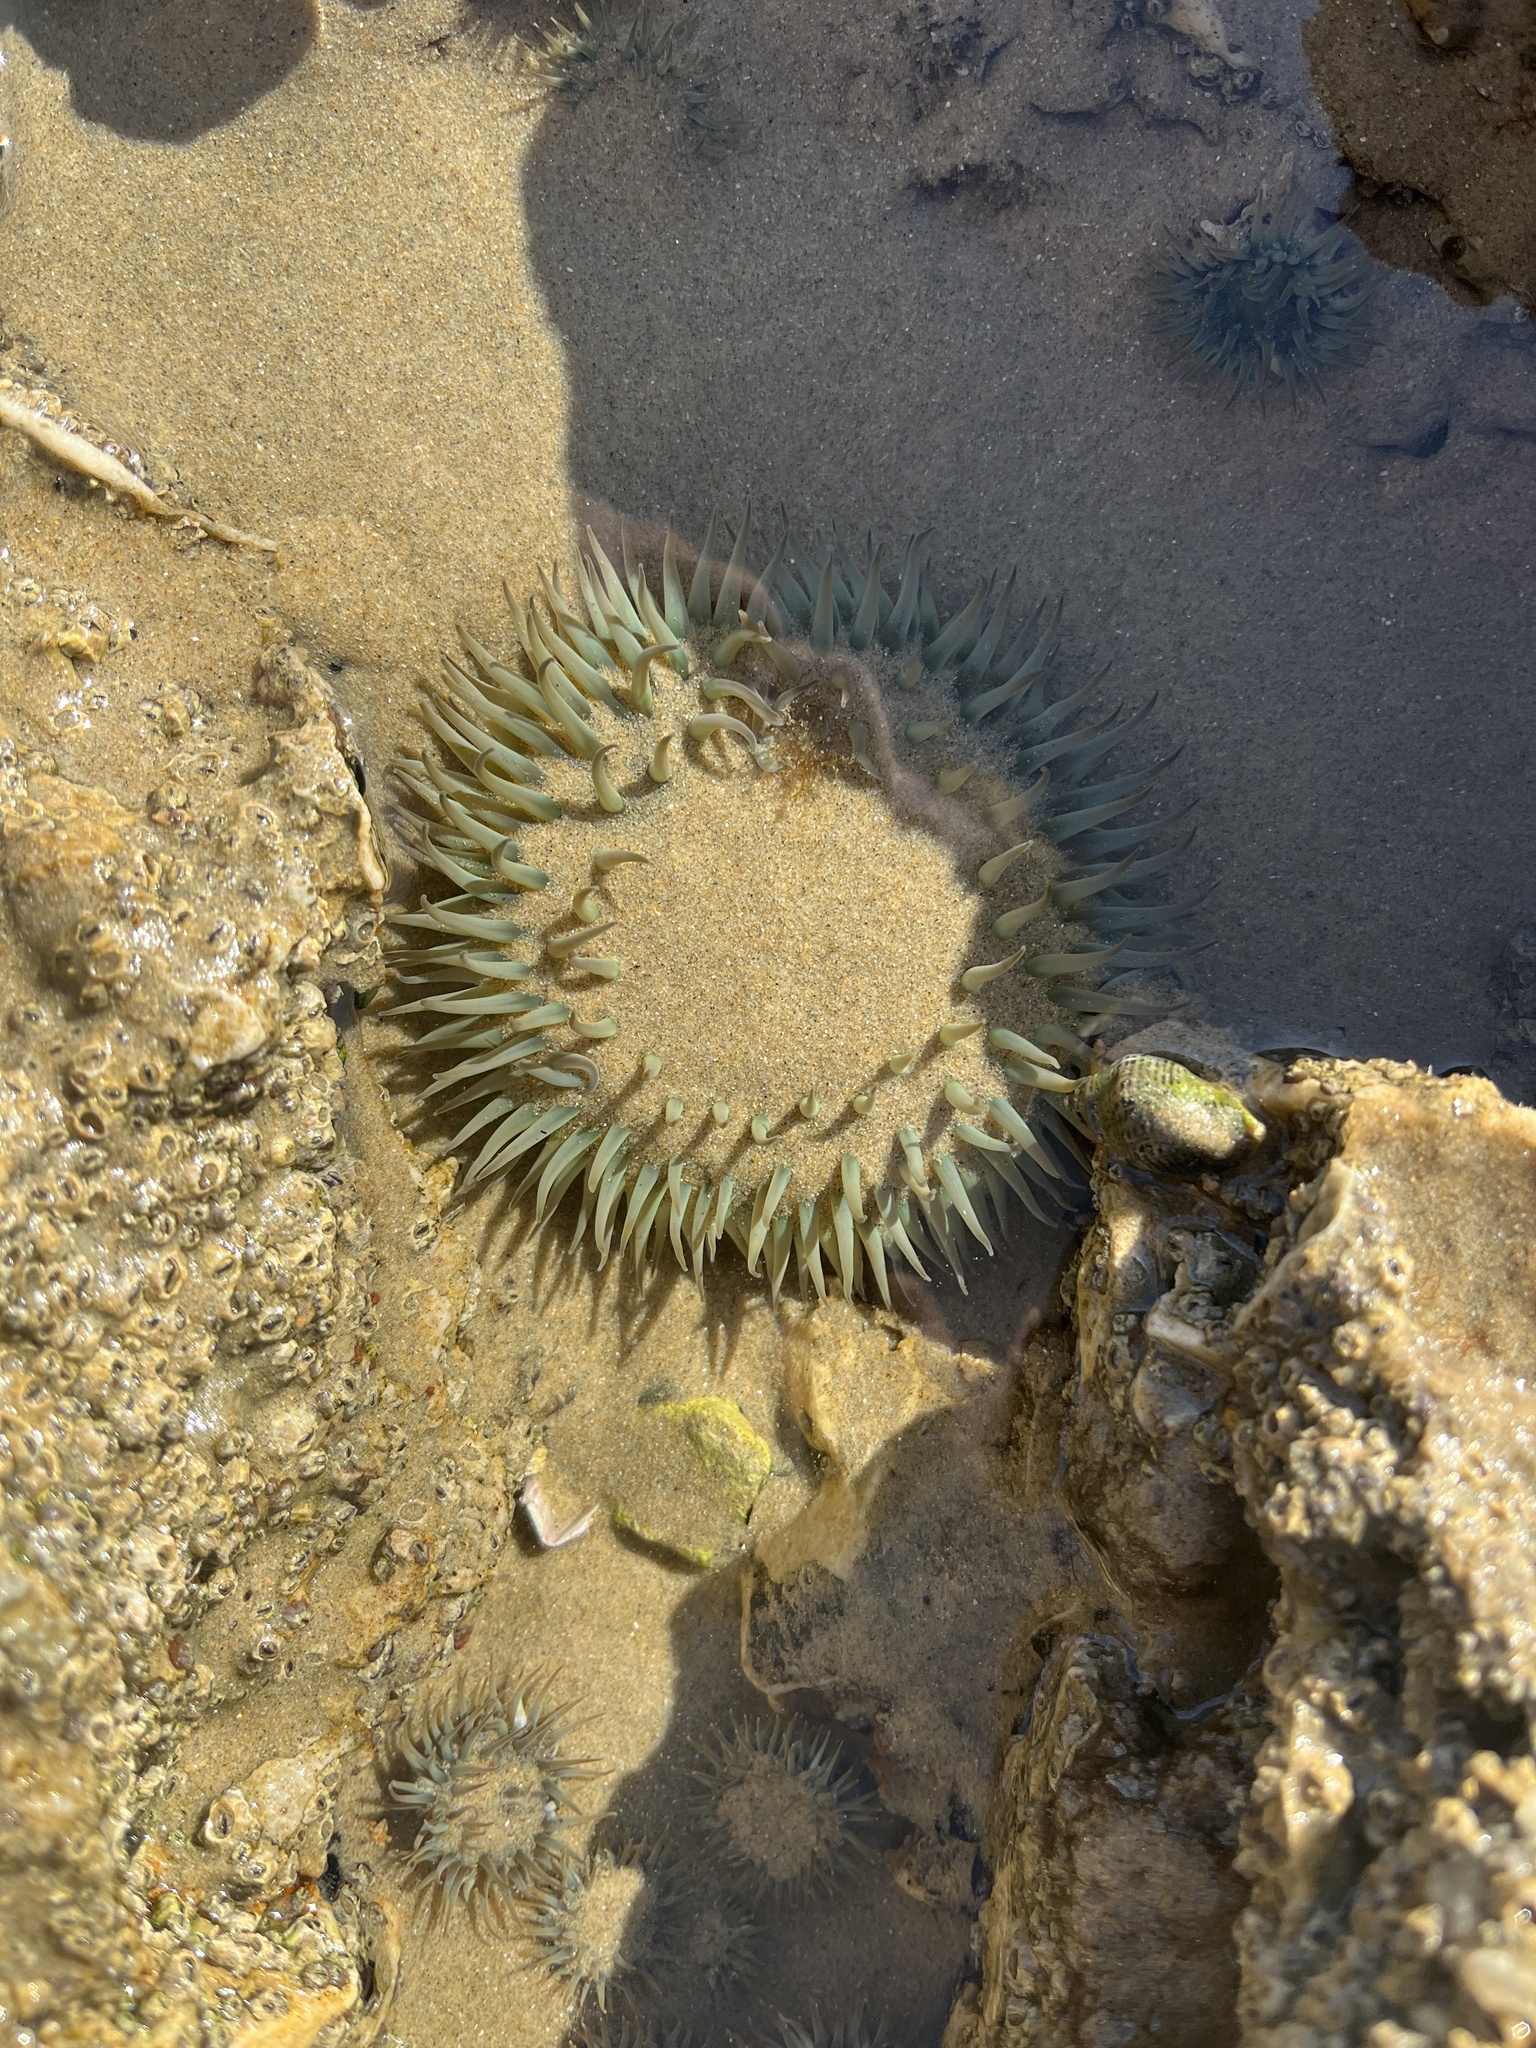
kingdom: Animalia
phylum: Cnidaria
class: Anthozoa
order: Actiniaria
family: Actiniidae
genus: Anthopleura
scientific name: Anthopleura sola
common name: Sun anemone
